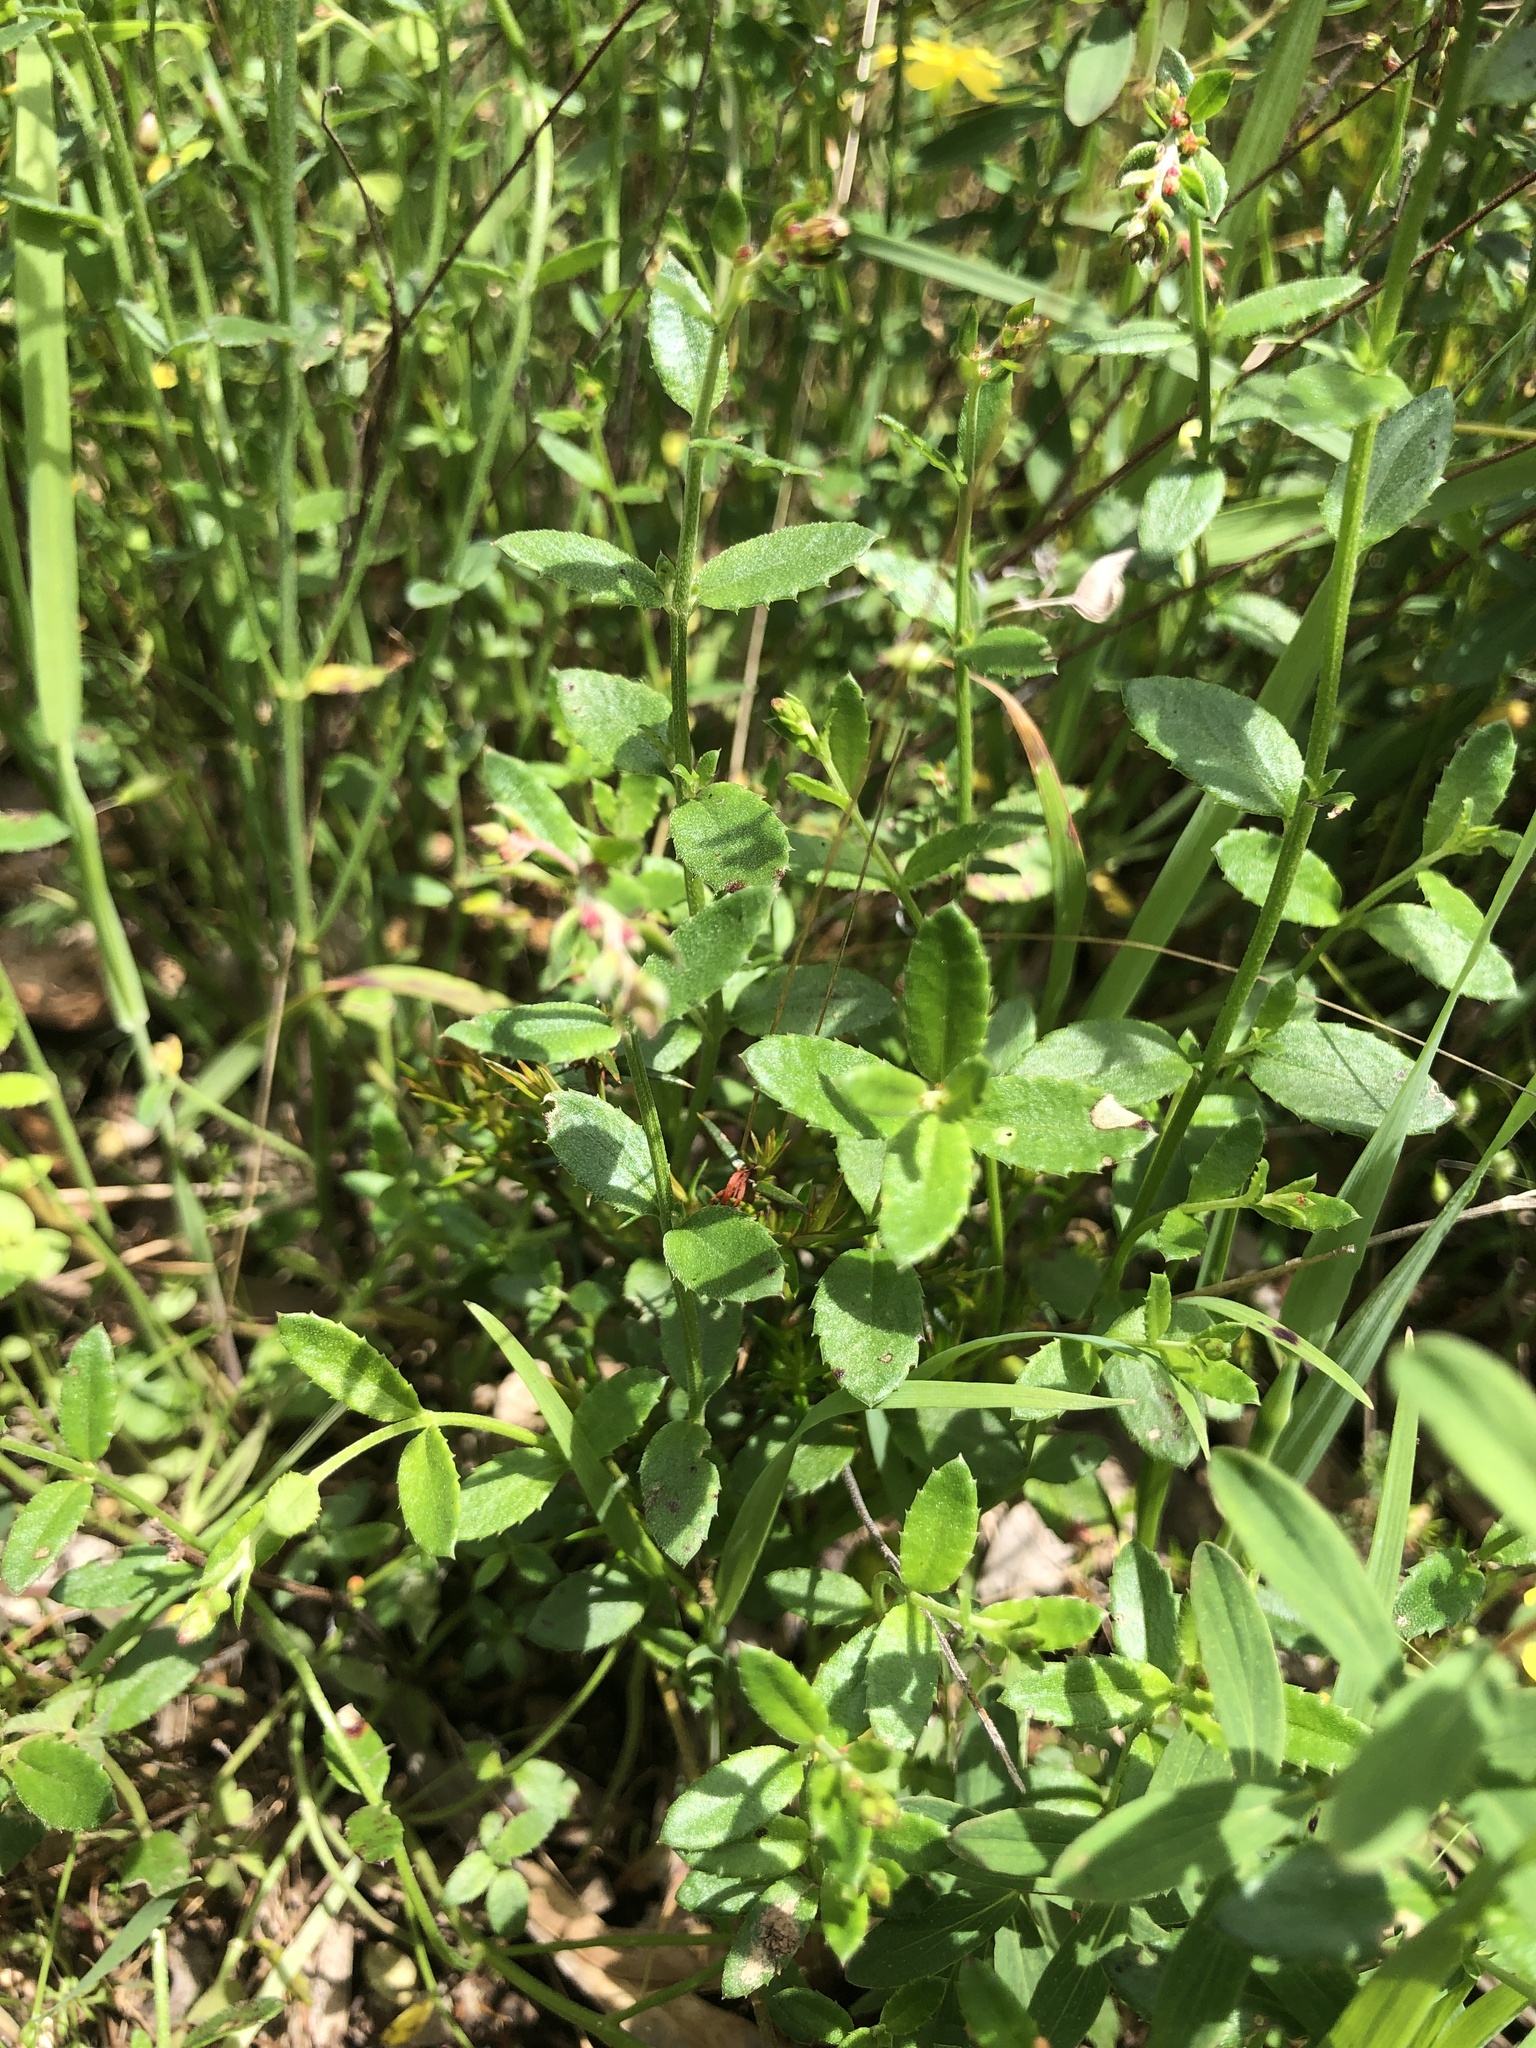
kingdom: Plantae
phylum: Tracheophyta
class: Magnoliopsida
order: Saxifragales
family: Haloragaceae
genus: Gonocarpus
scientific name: Gonocarpus tetragynus
